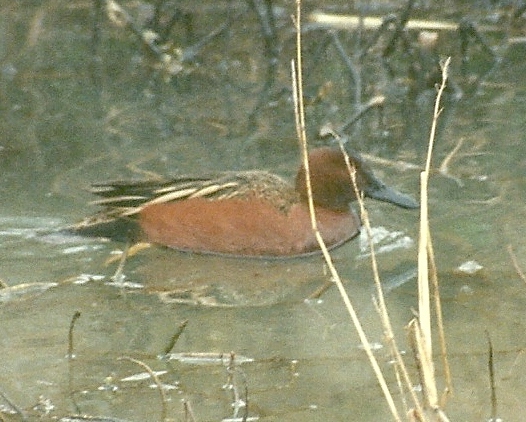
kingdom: Animalia
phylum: Chordata
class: Aves
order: Anseriformes
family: Anatidae
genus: Spatula
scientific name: Spatula cyanoptera
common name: Cinnamon teal
